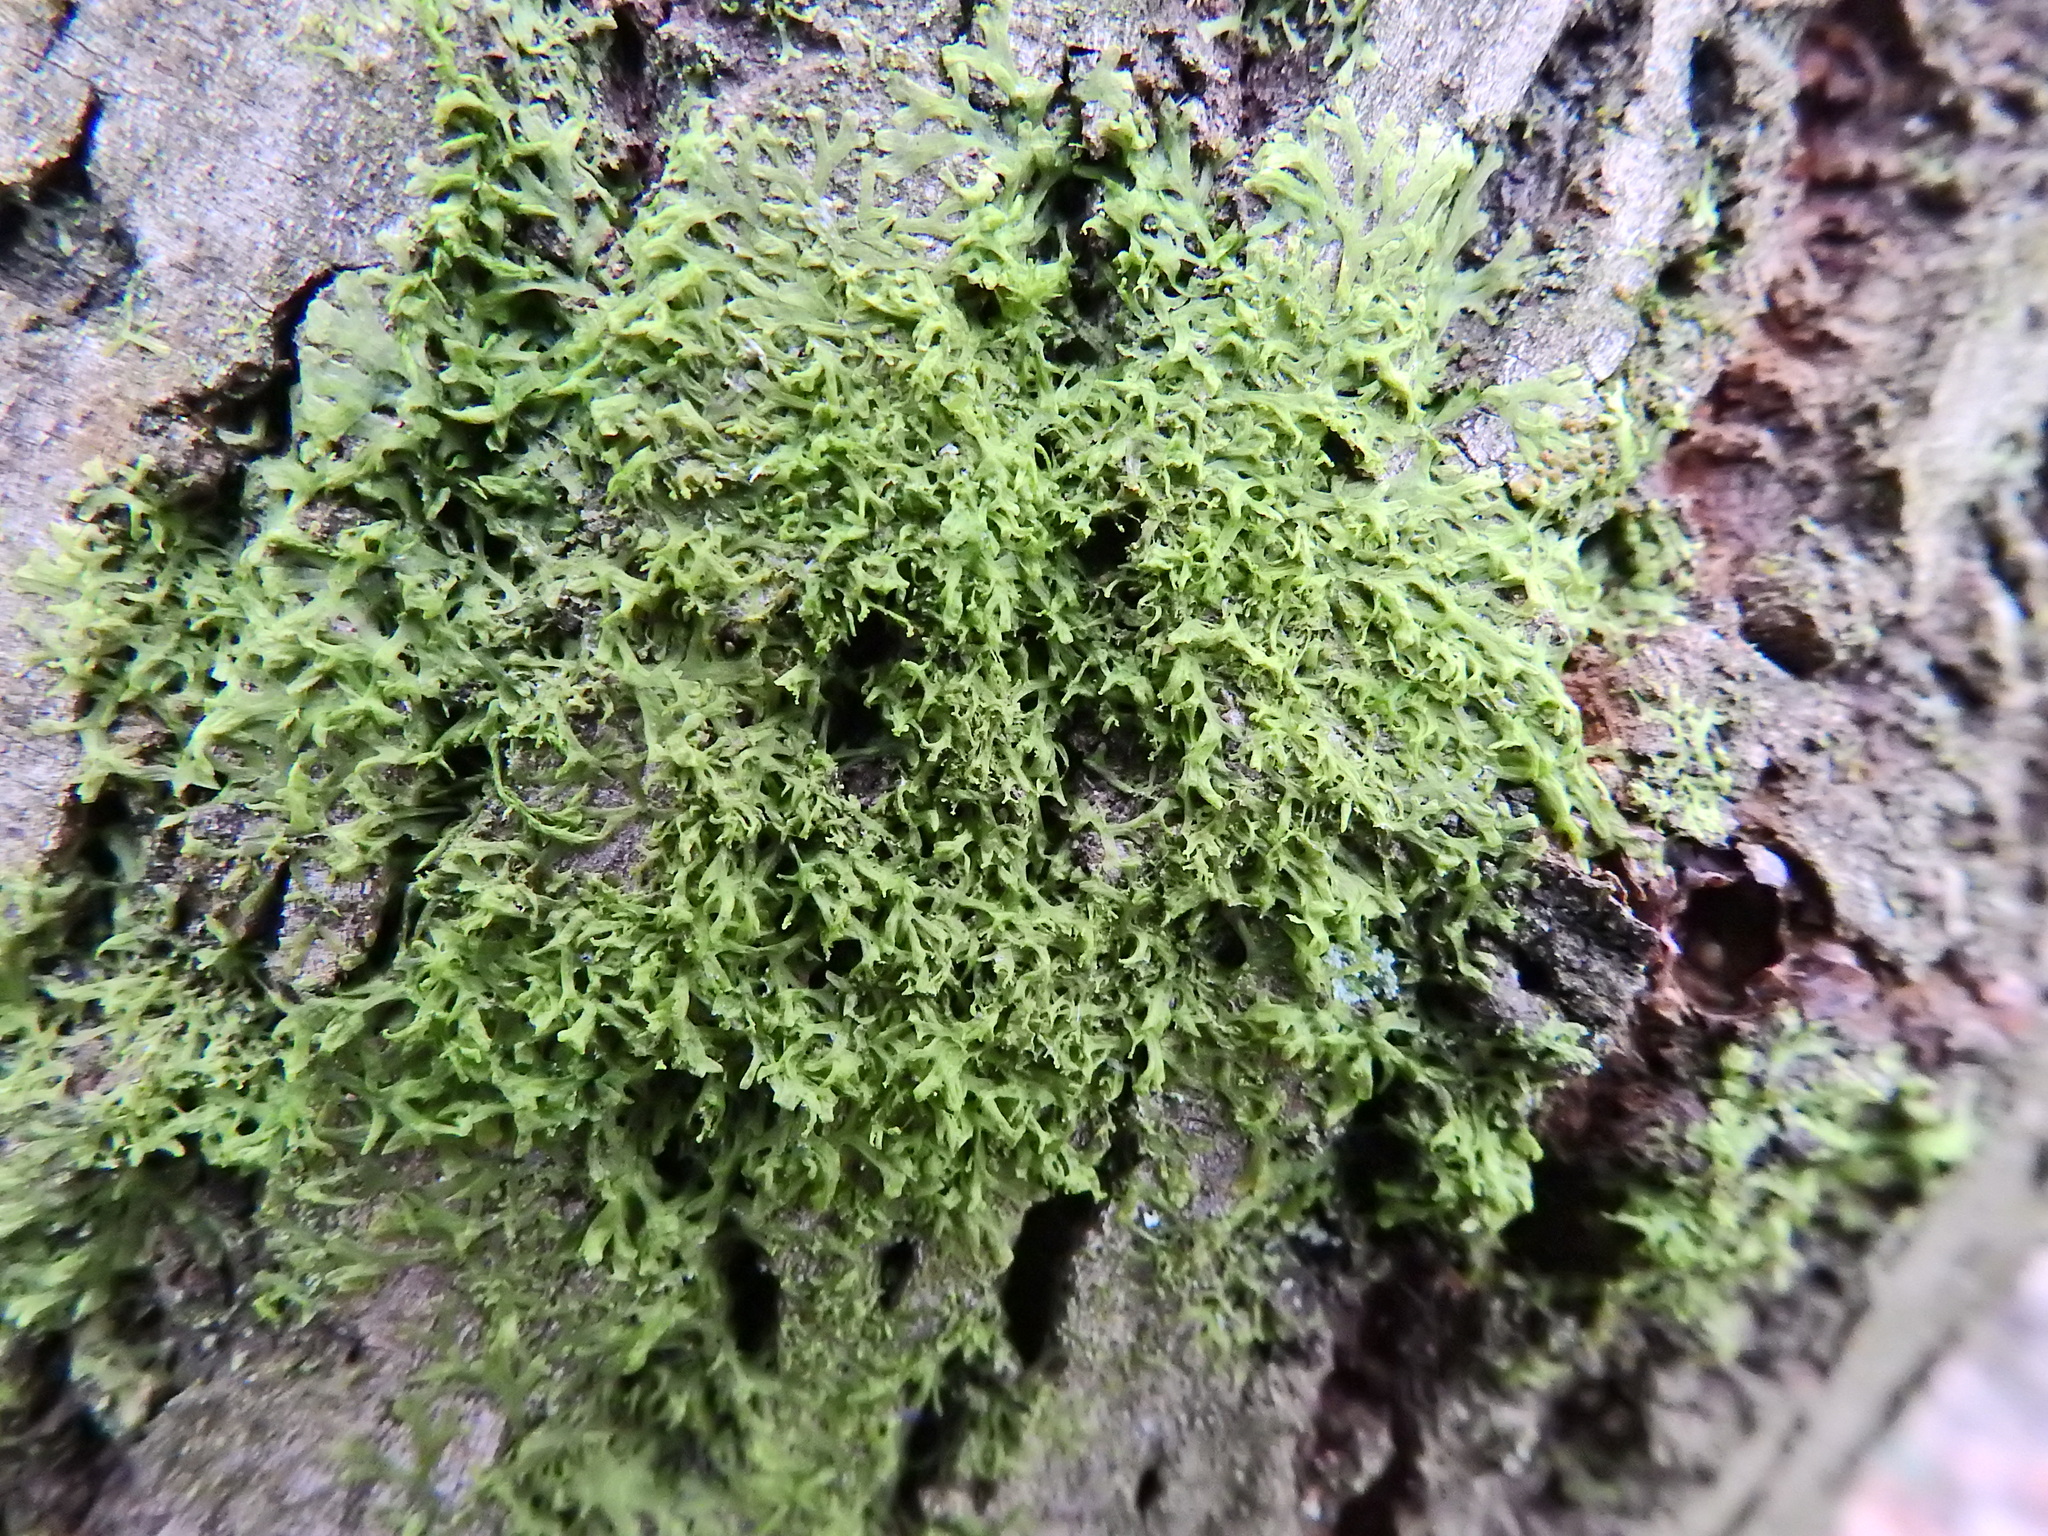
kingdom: Plantae
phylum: Marchantiophyta
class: Jungermanniopsida
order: Metzgeriales
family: Metzgeriaceae
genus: Metzgeria
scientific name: Metzgeria violacea
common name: Blueish veilwort
